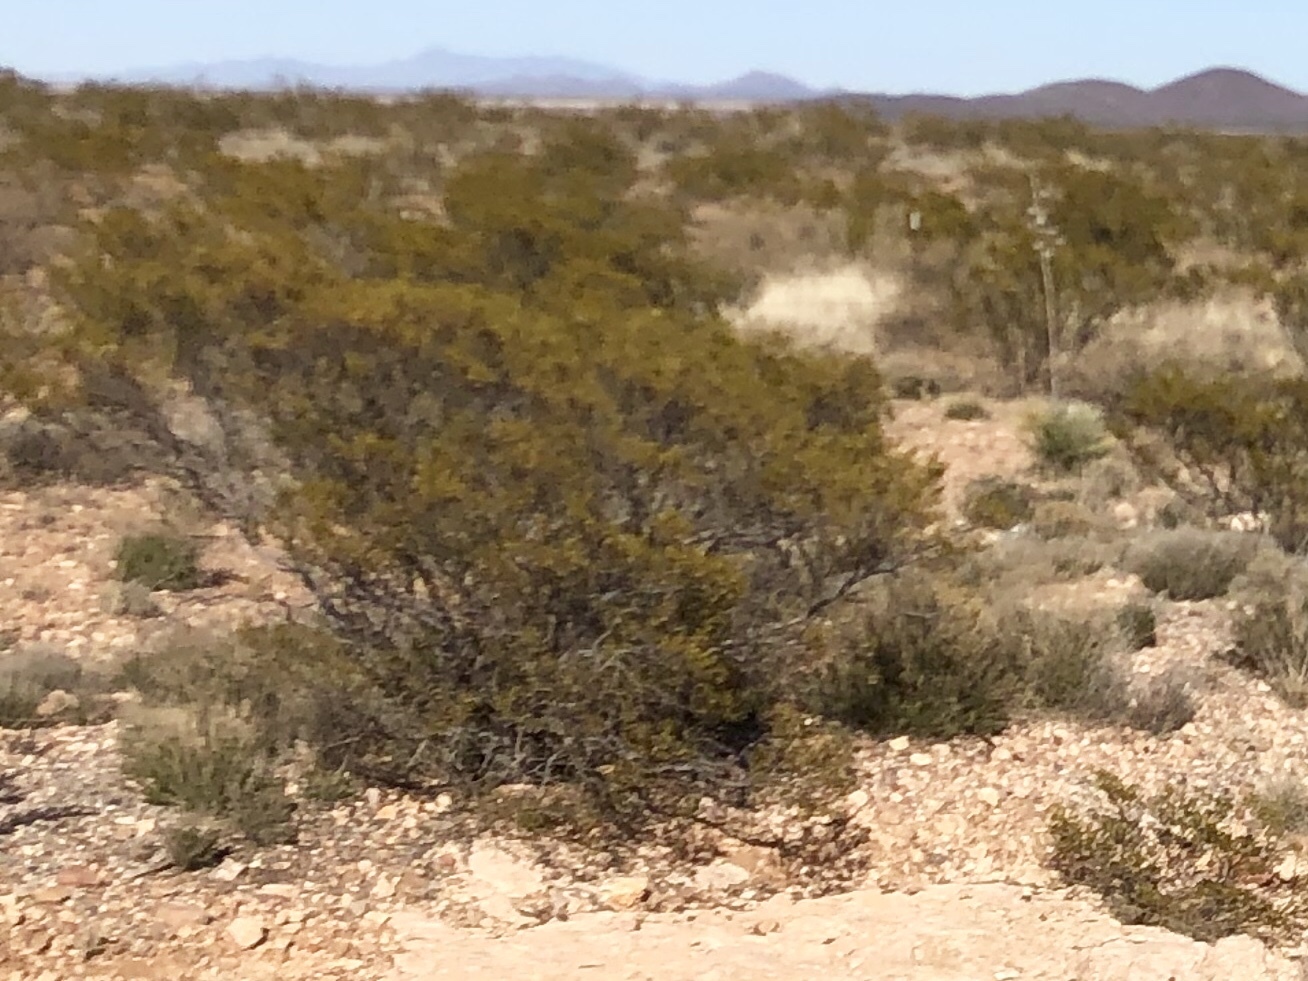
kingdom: Plantae
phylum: Tracheophyta
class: Magnoliopsida
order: Zygophyllales
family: Zygophyllaceae
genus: Larrea
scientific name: Larrea tridentata
